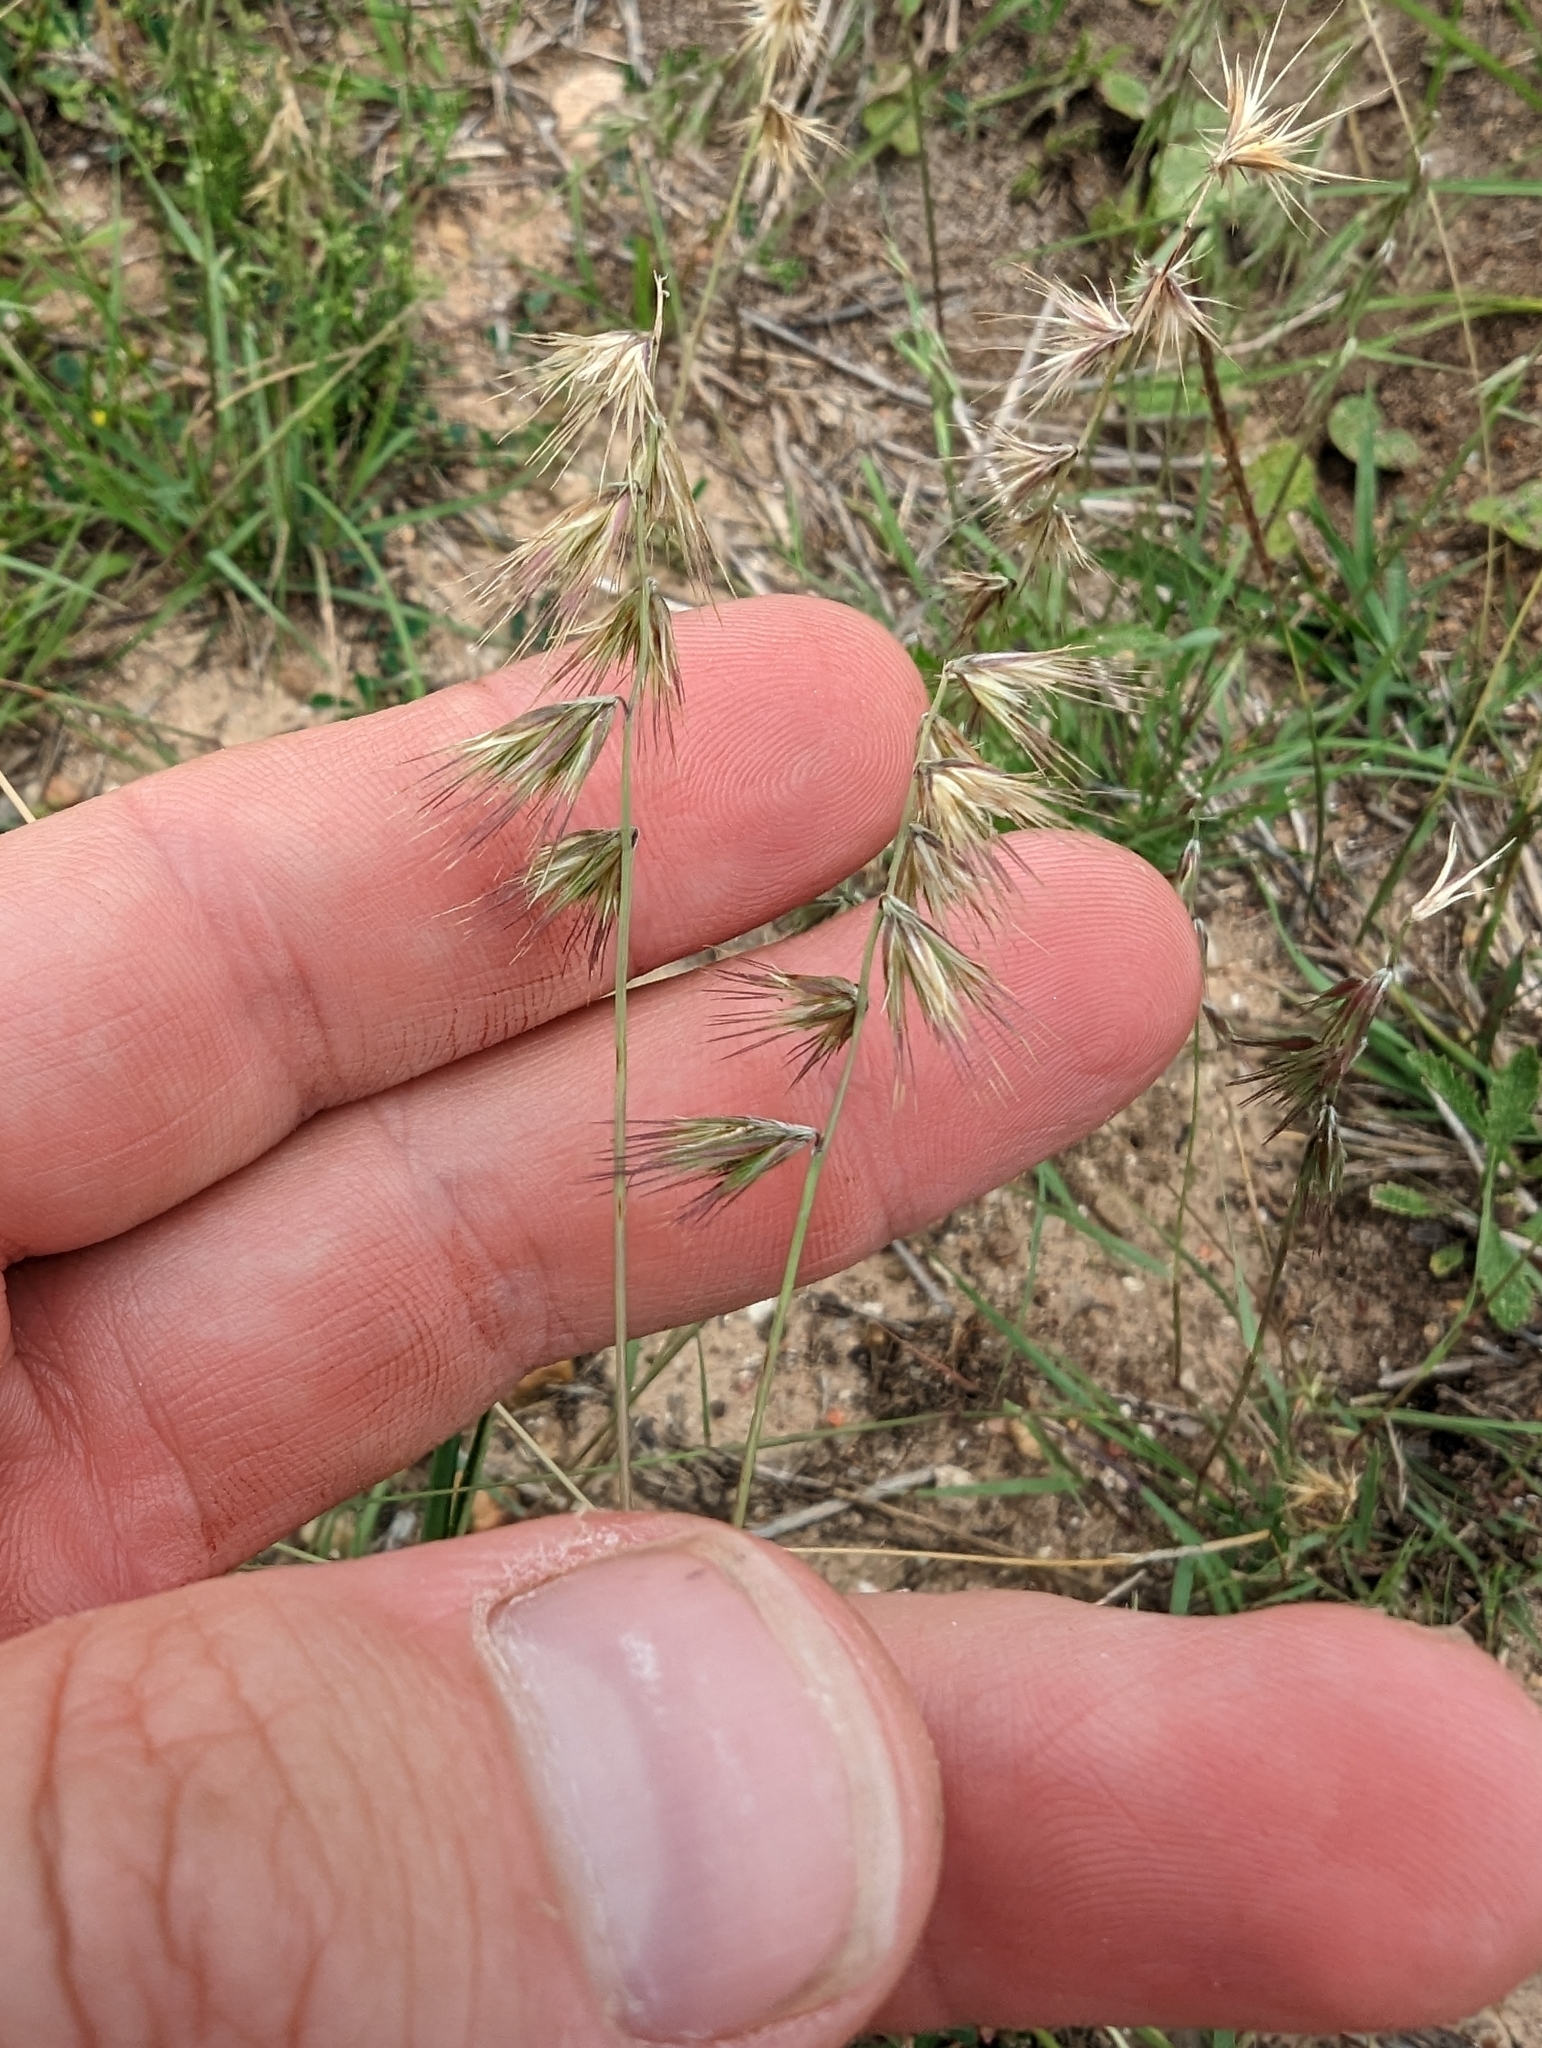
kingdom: Plantae
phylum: Tracheophyta
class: Liliopsida
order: Poales
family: Poaceae
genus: Bouteloua
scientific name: Bouteloua rigidiseta
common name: Texas grama
